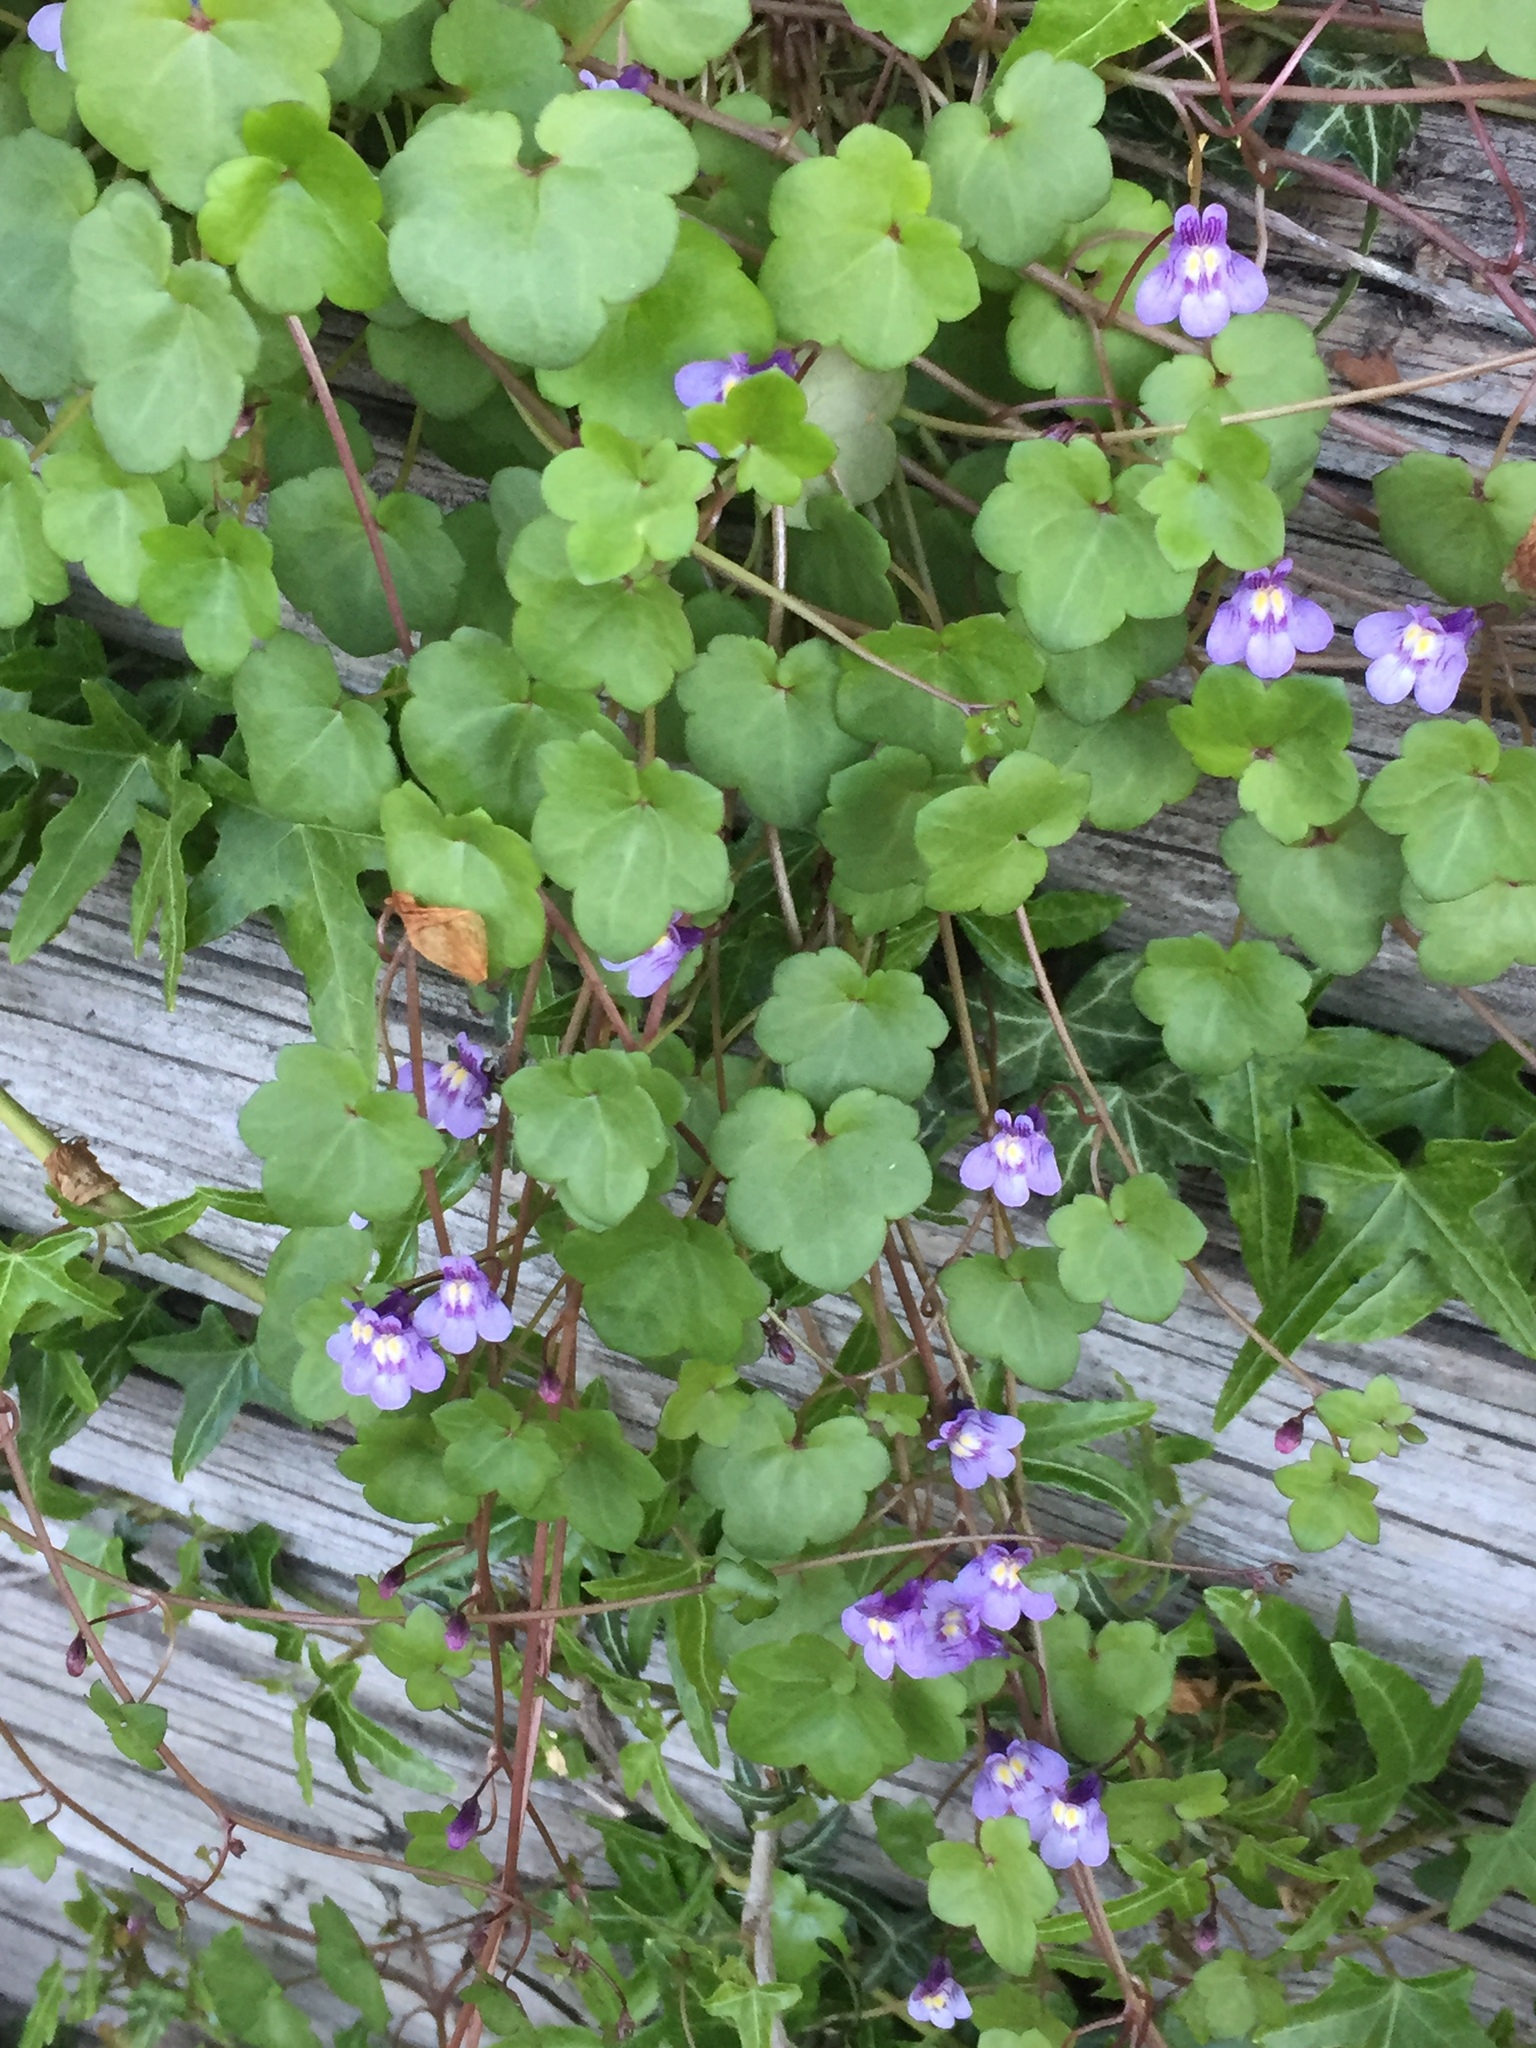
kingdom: Plantae
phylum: Tracheophyta
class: Magnoliopsida
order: Lamiales
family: Plantaginaceae
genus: Cymbalaria
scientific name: Cymbalaria muralis
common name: Ivy-leaved toadflax
